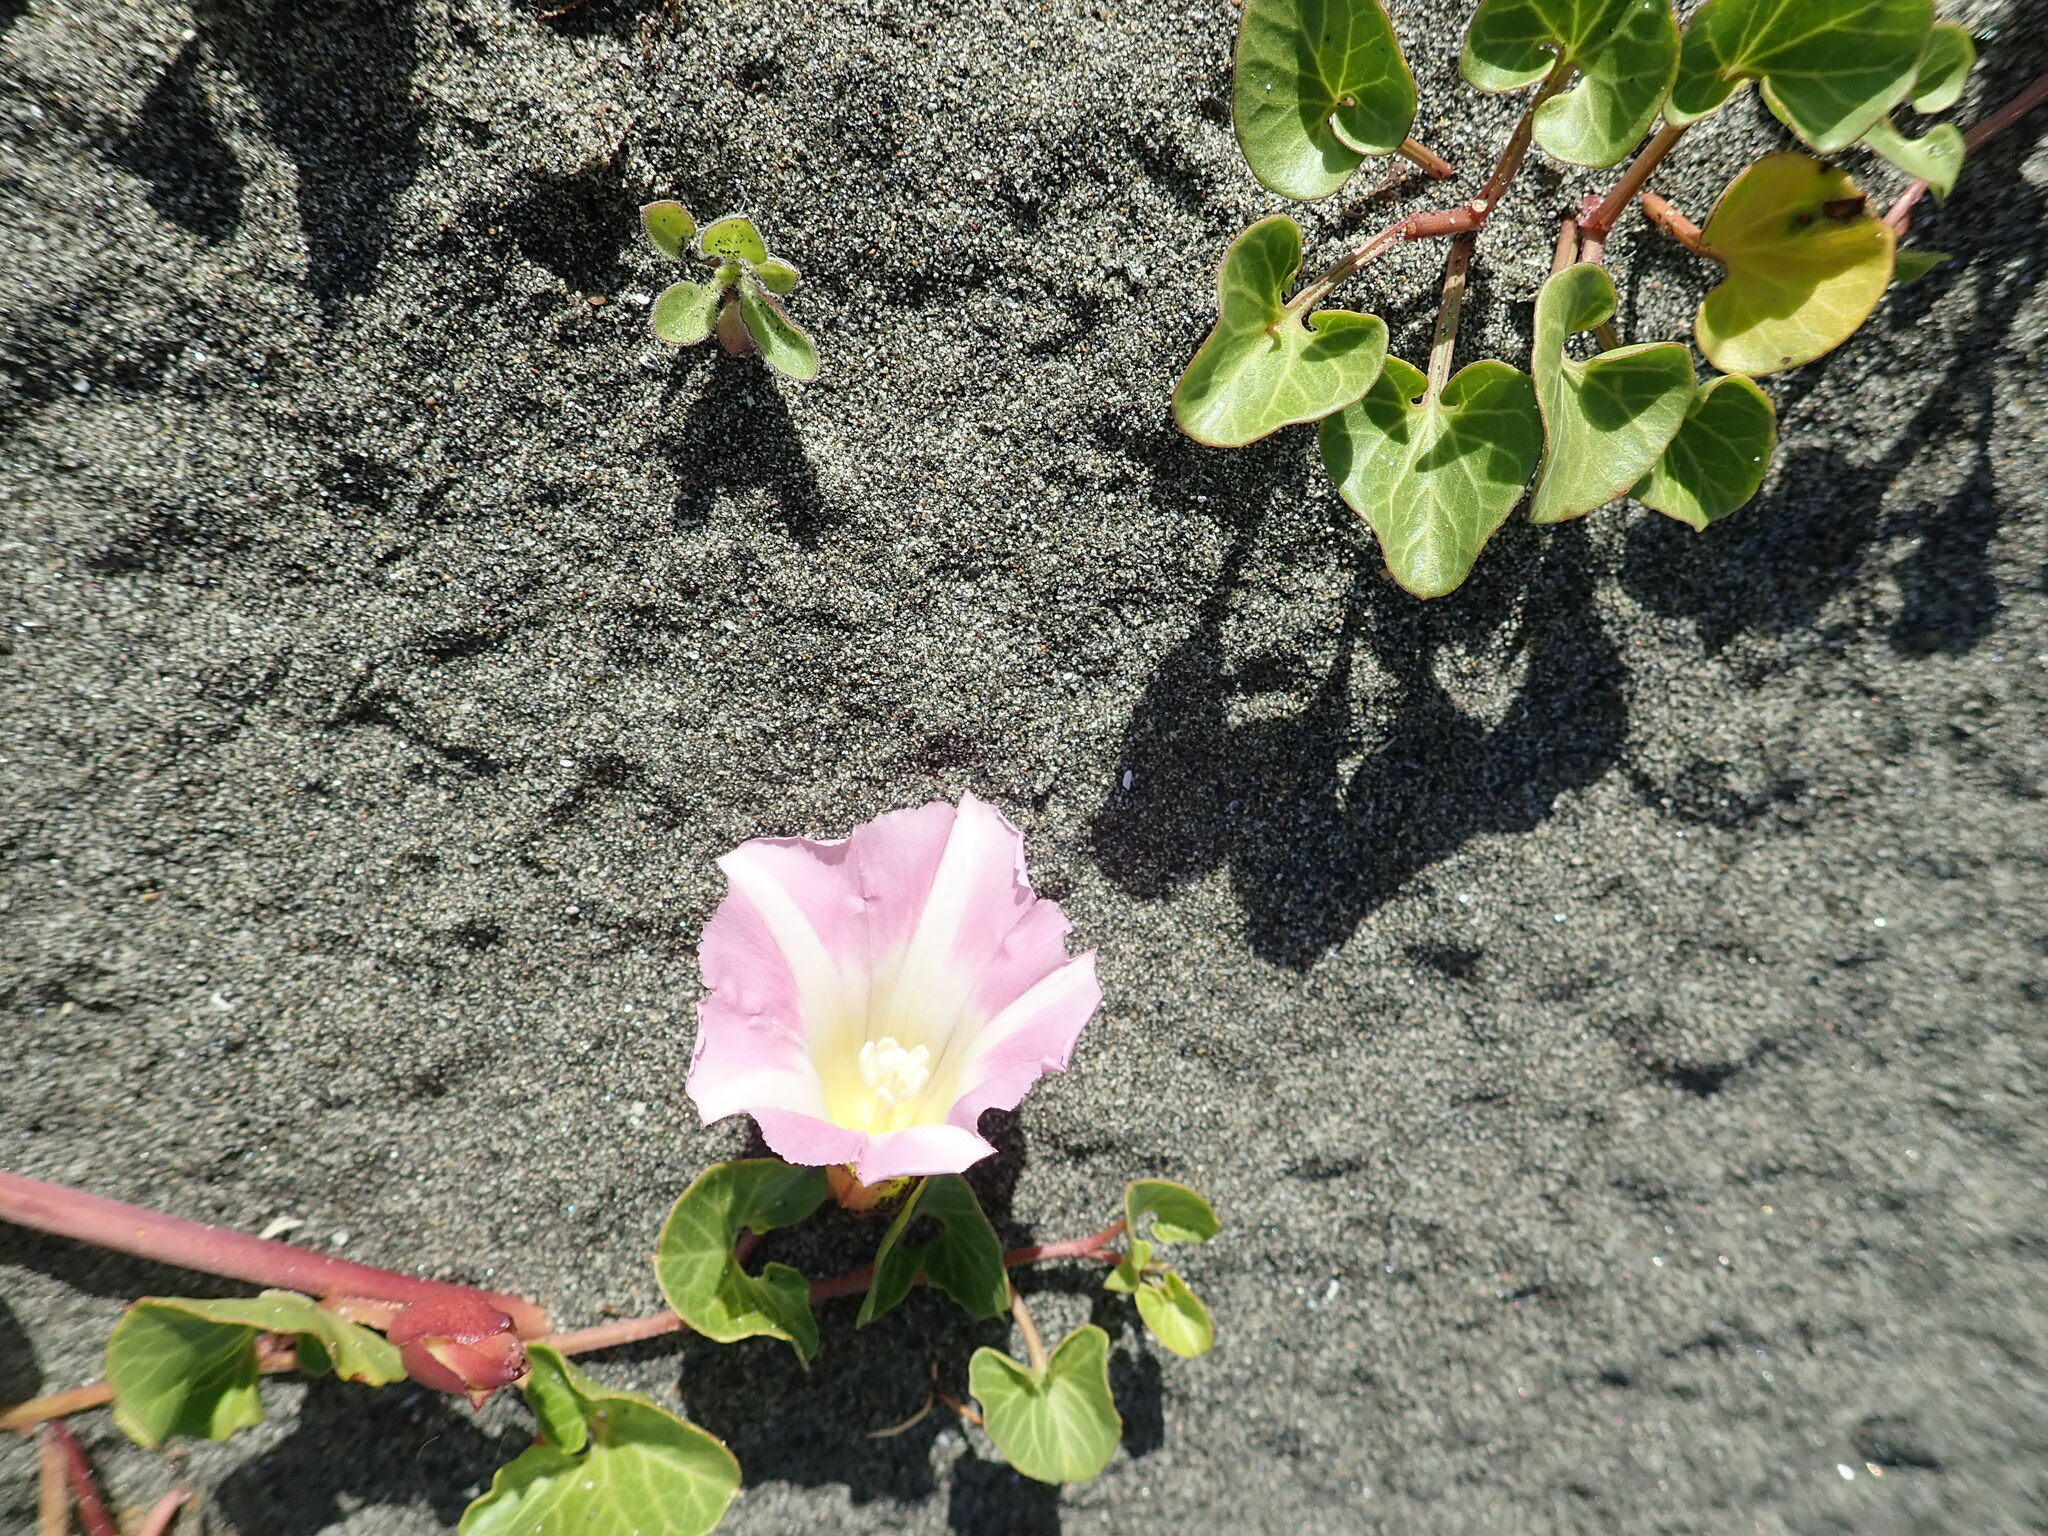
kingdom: Plantae
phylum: Tracheophyta
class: Magnoliopsida
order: Solanales
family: Convolvulaceae
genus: Calystegia
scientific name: Calystegia soldanella
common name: Sea bindweed
